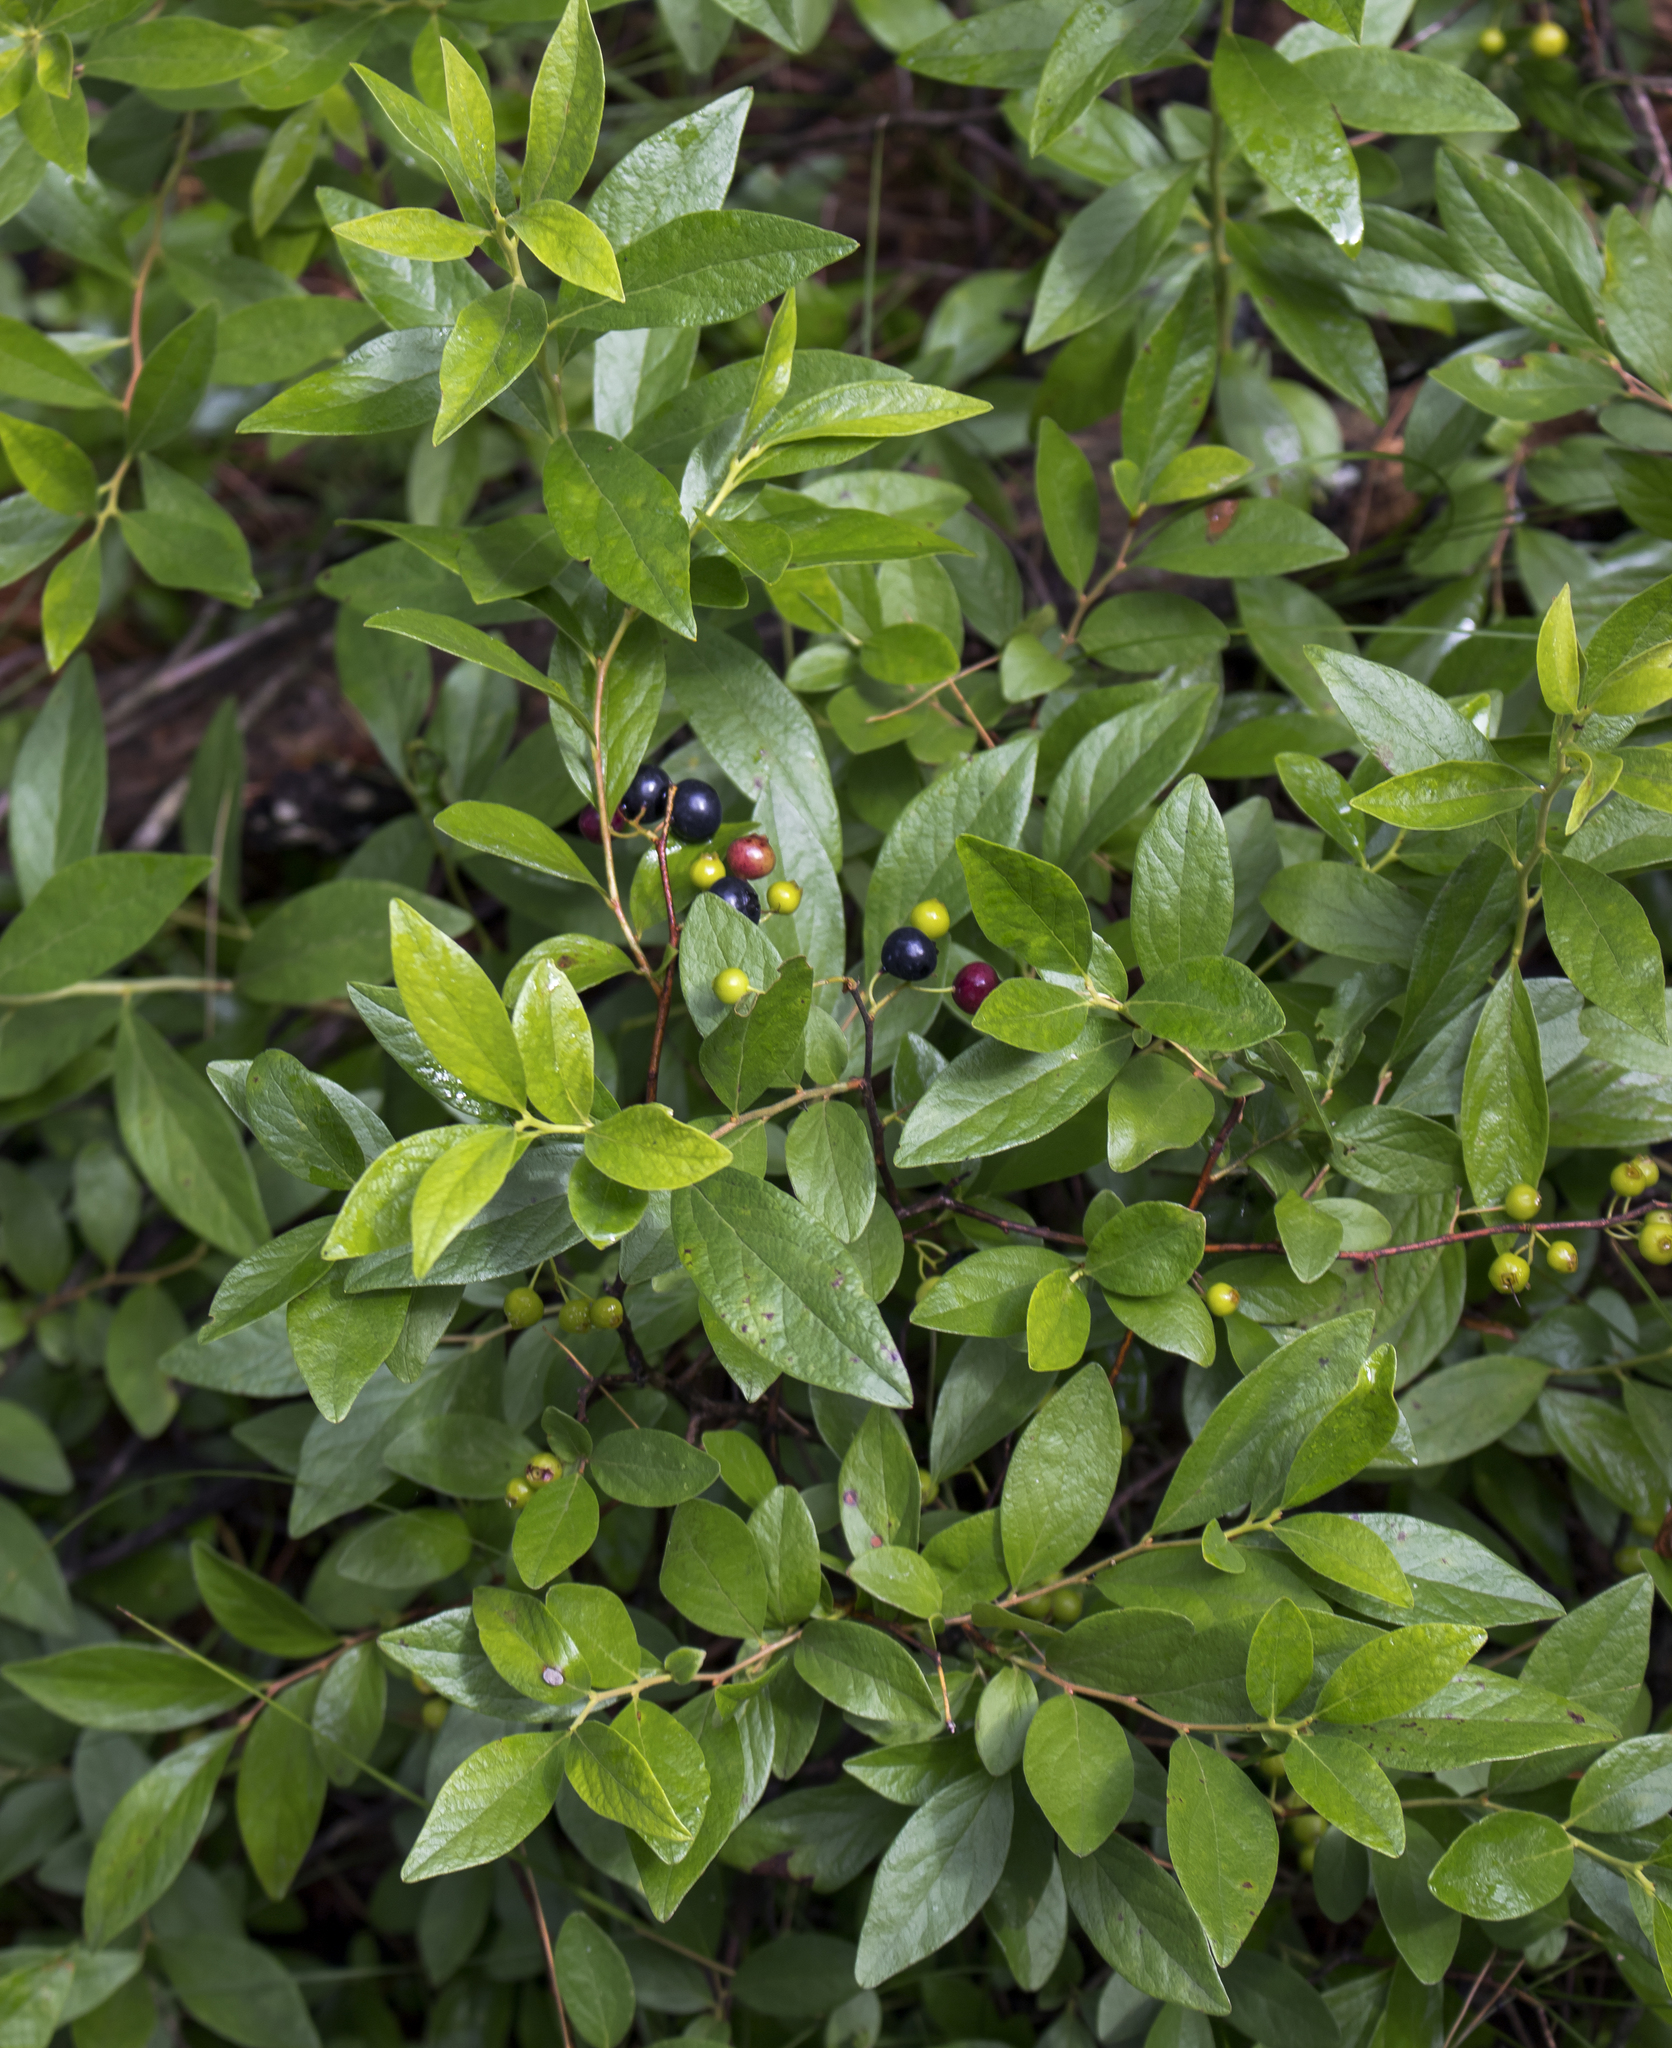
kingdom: Plantae
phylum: Tracheophyta
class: Magnoliopsida
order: Ericales
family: Ericaceae
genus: Gaylussacia
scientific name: Gaylussacia baccata
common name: Black huckleberry
